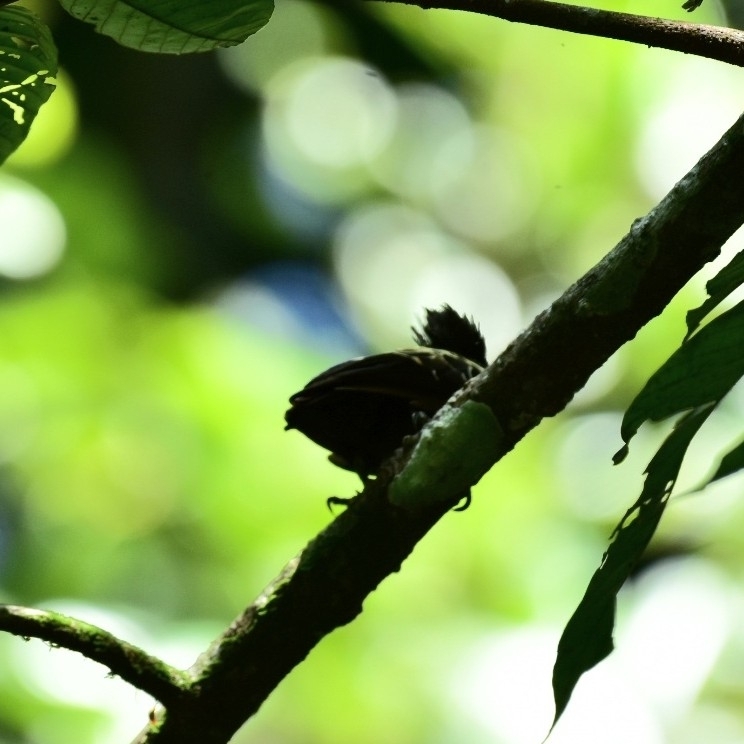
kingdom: Animalia
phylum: Chordata
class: Aves
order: Piciformes
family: Picidae
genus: Hemicircus
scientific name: Hemicircus canente
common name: Heart-spotted woodpecker
